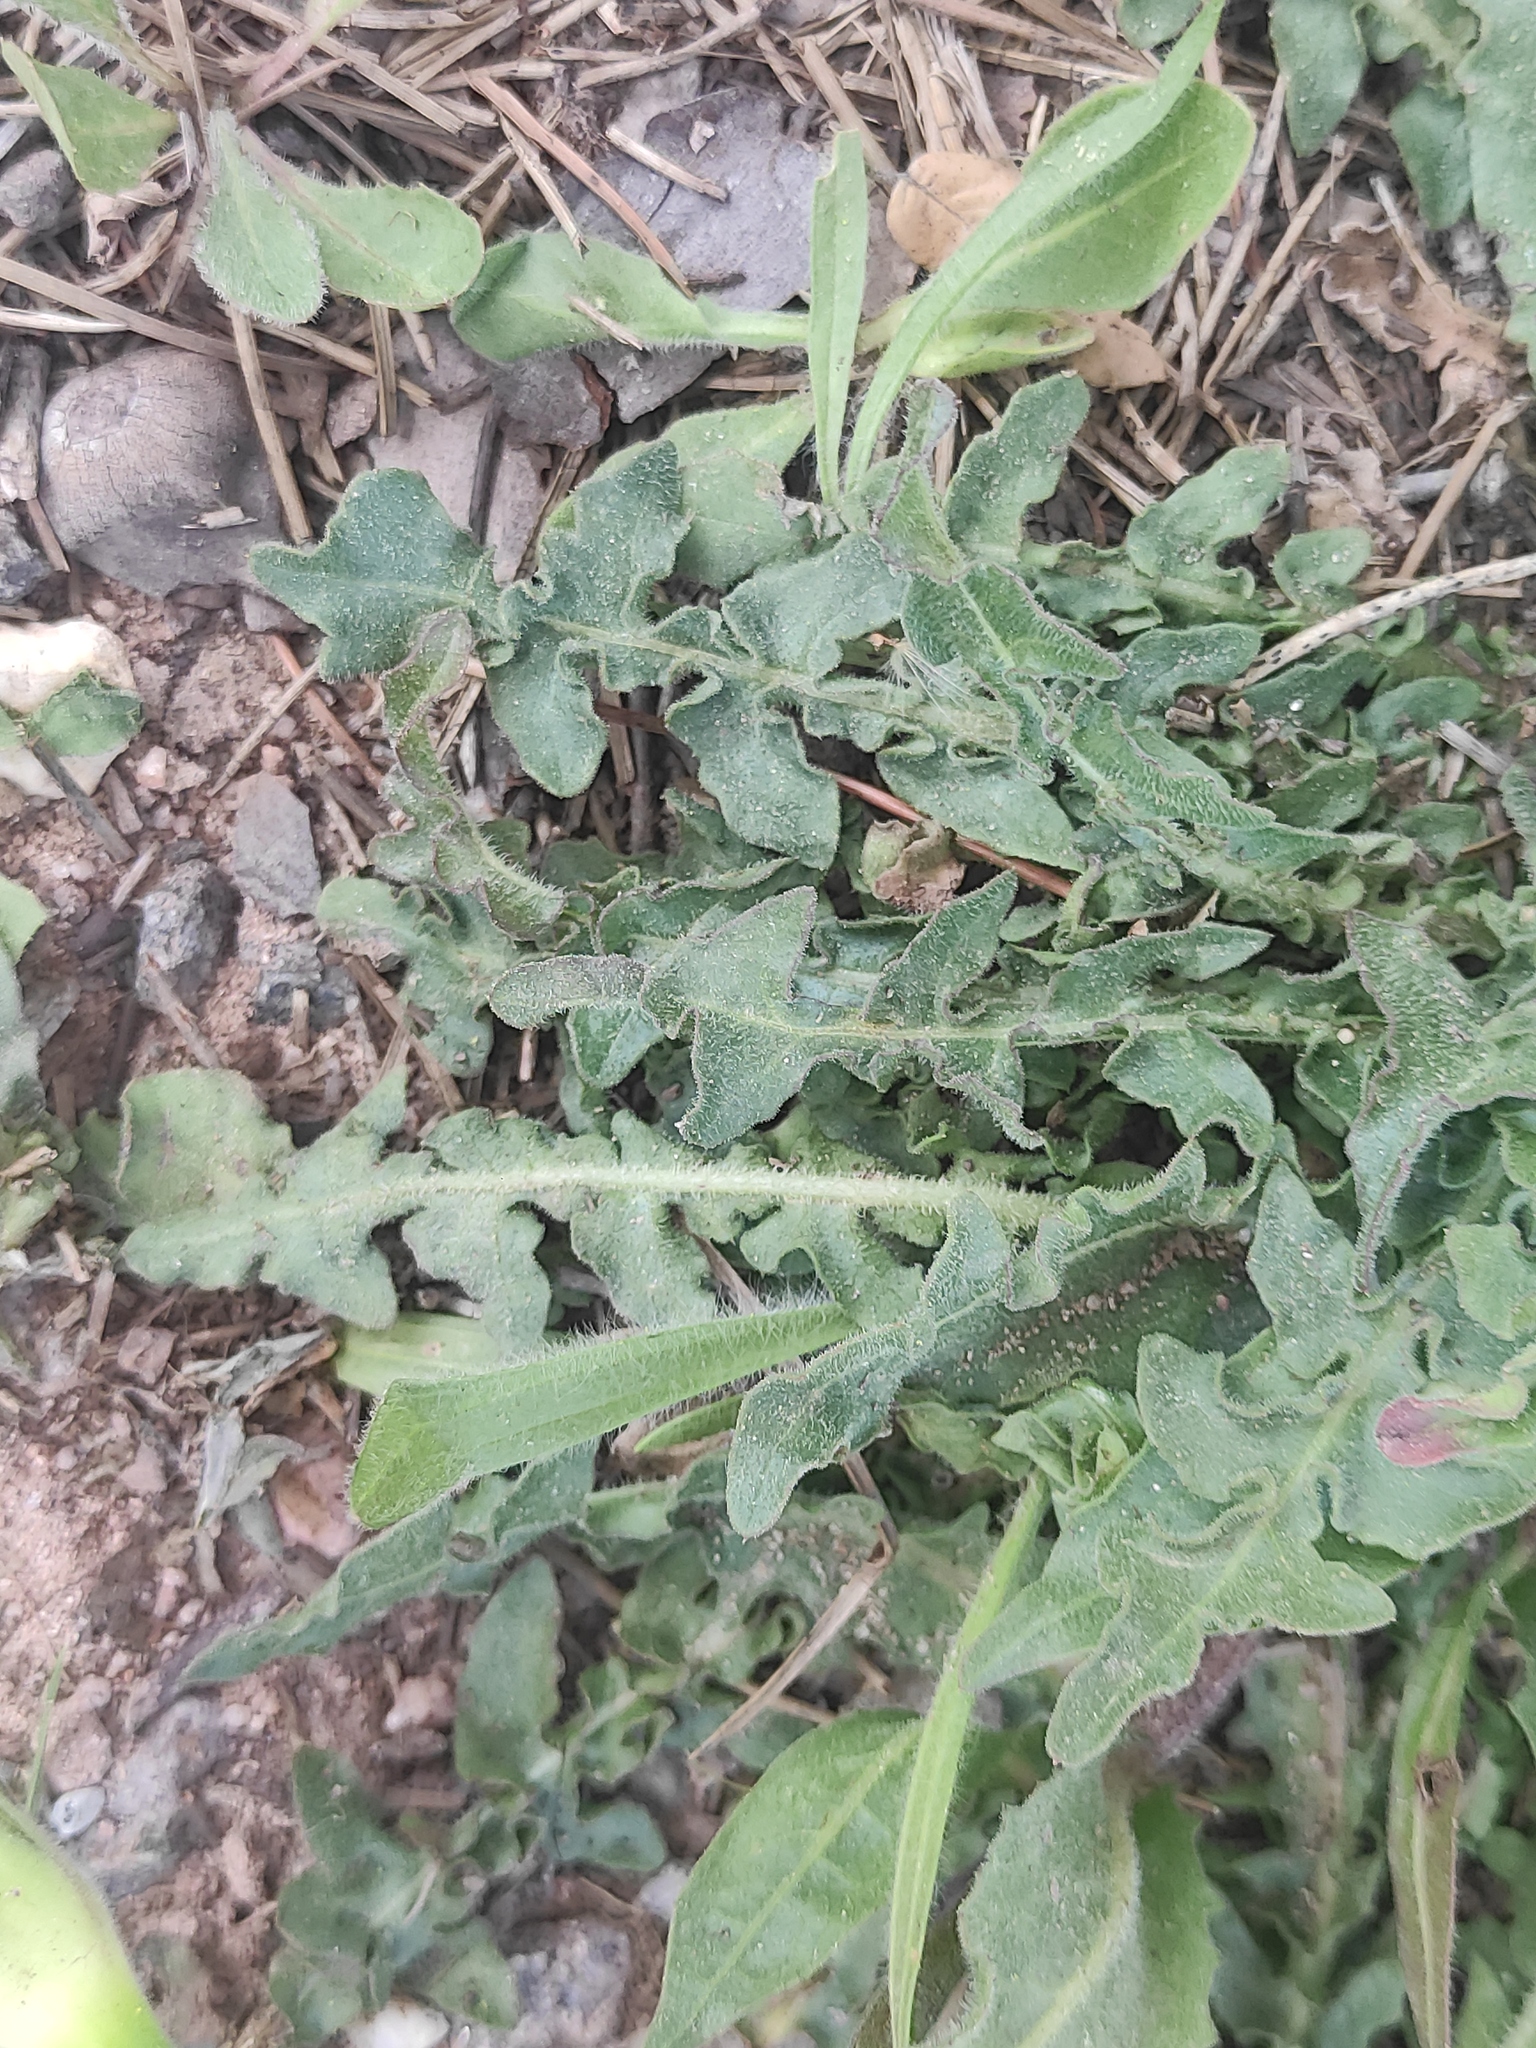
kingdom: Plantae
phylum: Tracheophyta
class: Magnoliopsida
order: Asterales
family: Asteraceae
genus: Urospermum
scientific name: Urospermum dalechampii
